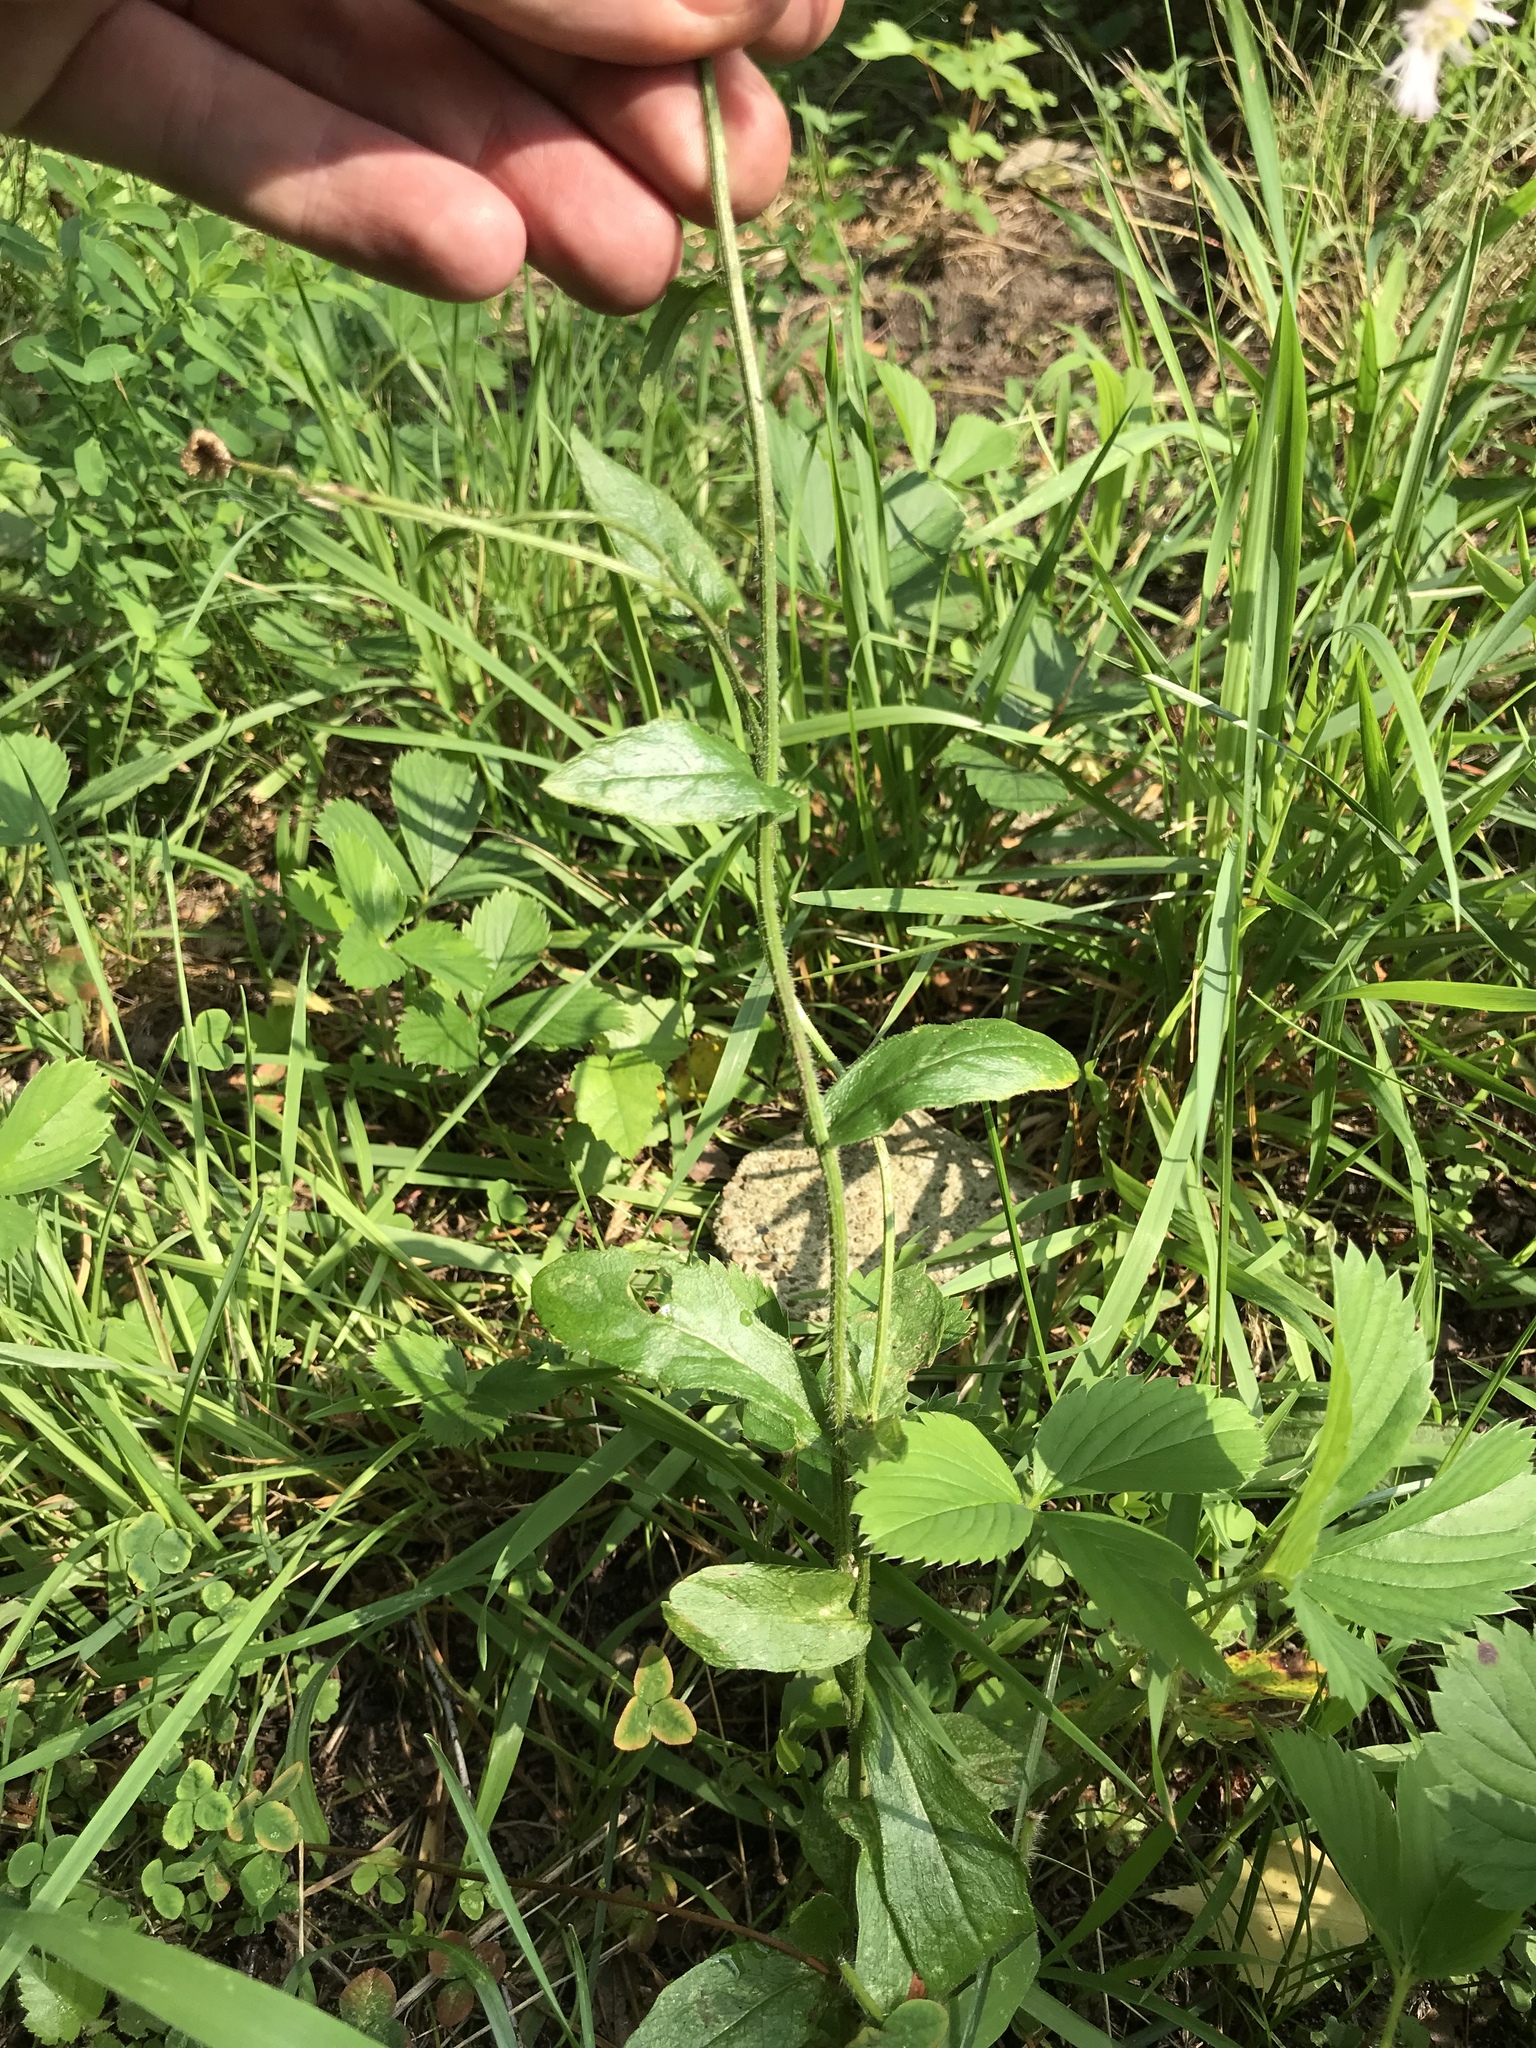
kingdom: Plantae
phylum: Tracheophyta
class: Magnoliopsida
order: Asterales
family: Asteraceae
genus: Erigeron
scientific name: Erigeron philadelphicus
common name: Robin's-plantain
